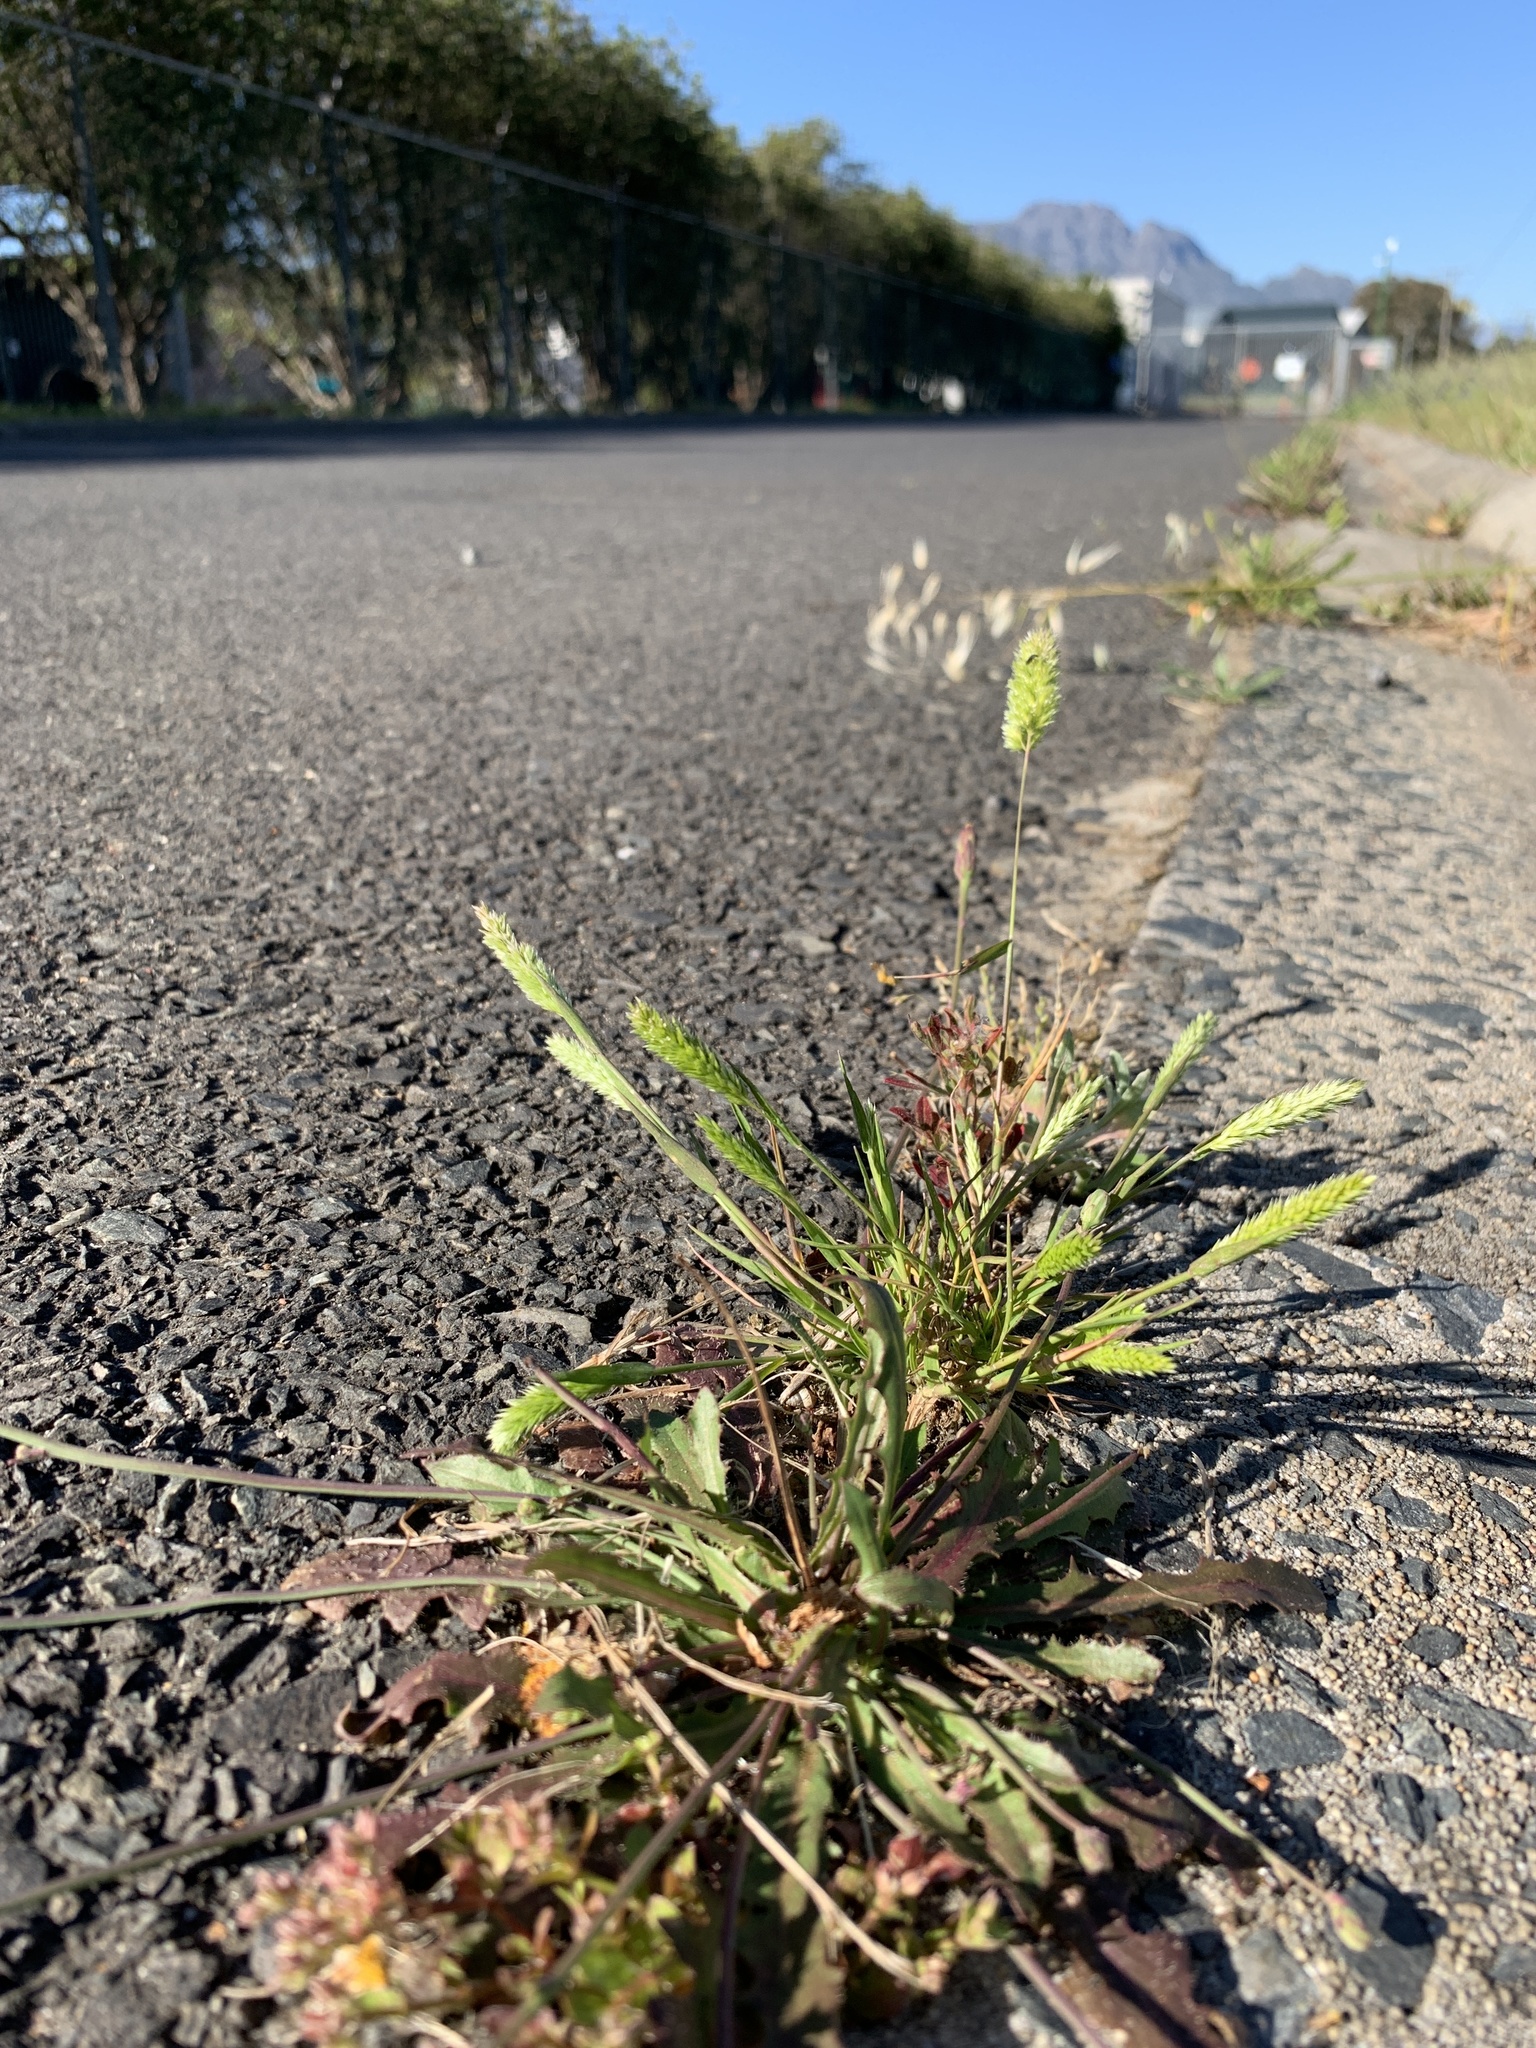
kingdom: Plantae
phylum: Tracheophyta
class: Liliopsida
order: Poales
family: Poaceae
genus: Rostraria
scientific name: Rostraria cristata
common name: Mediterranean hair-grass
